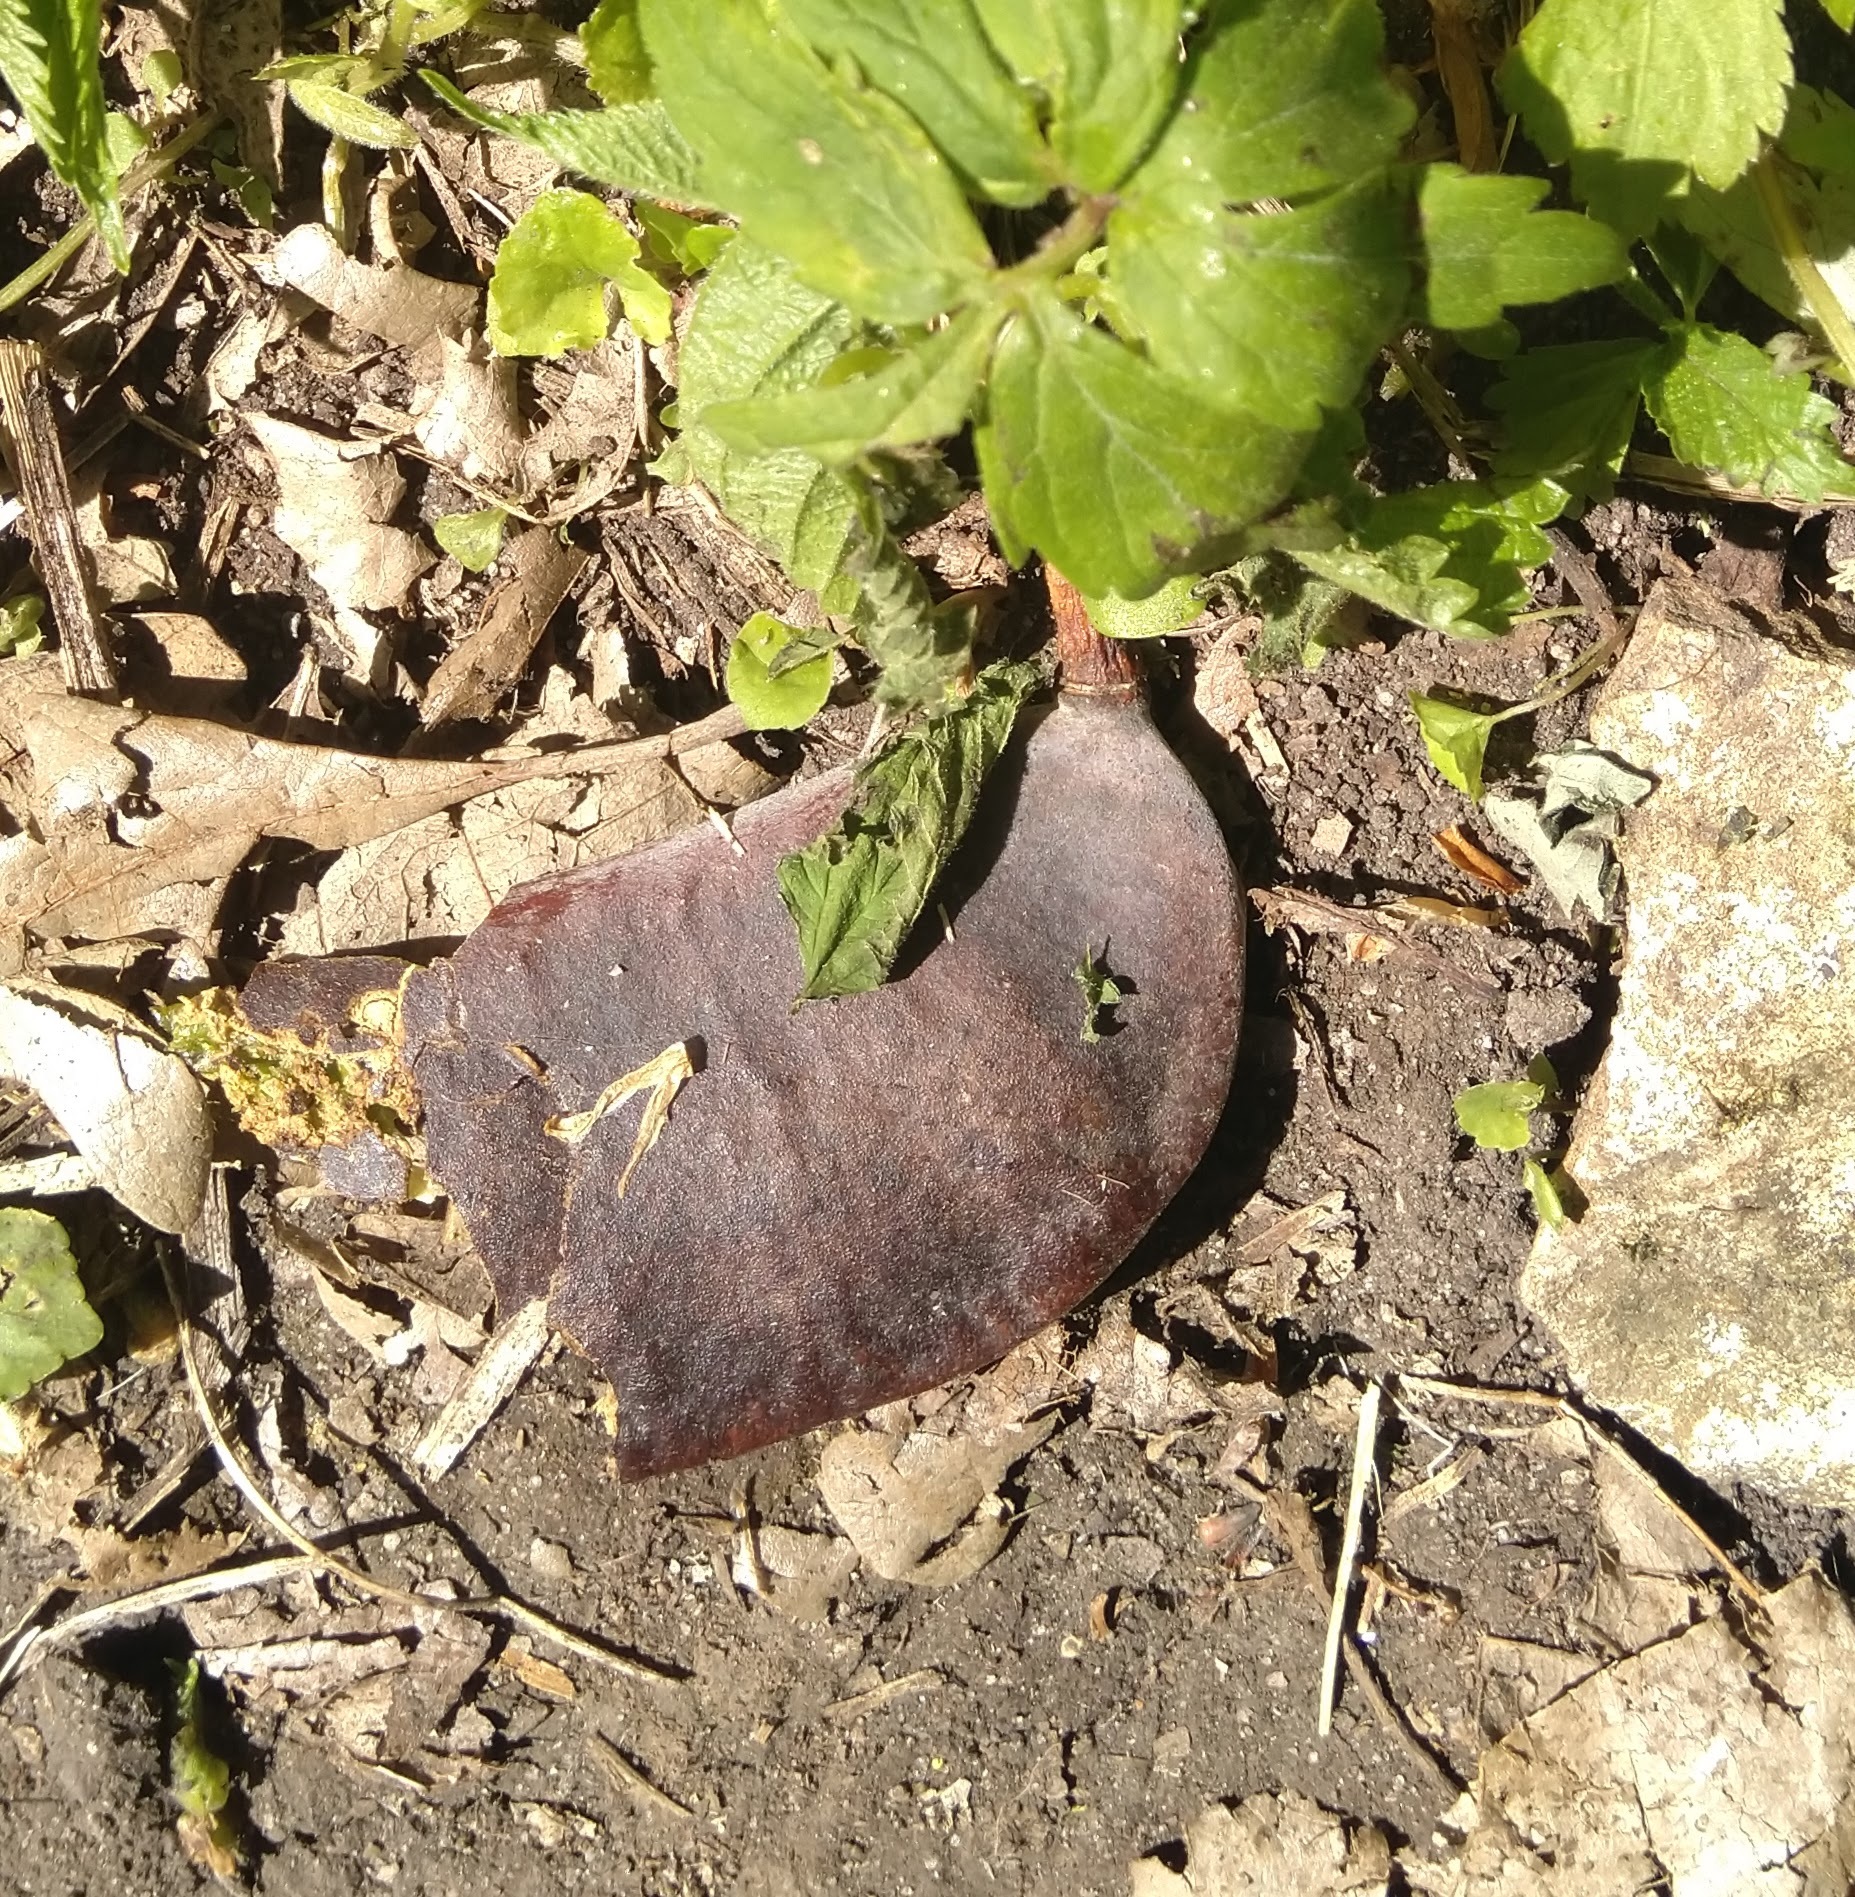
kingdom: Plantae
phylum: Tracheophyta
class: Magnoliopsida
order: Fabales
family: Fabaceae
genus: Gymnocladus
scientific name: Gymnocladus dioicus
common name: Kentucky coffee-tree
